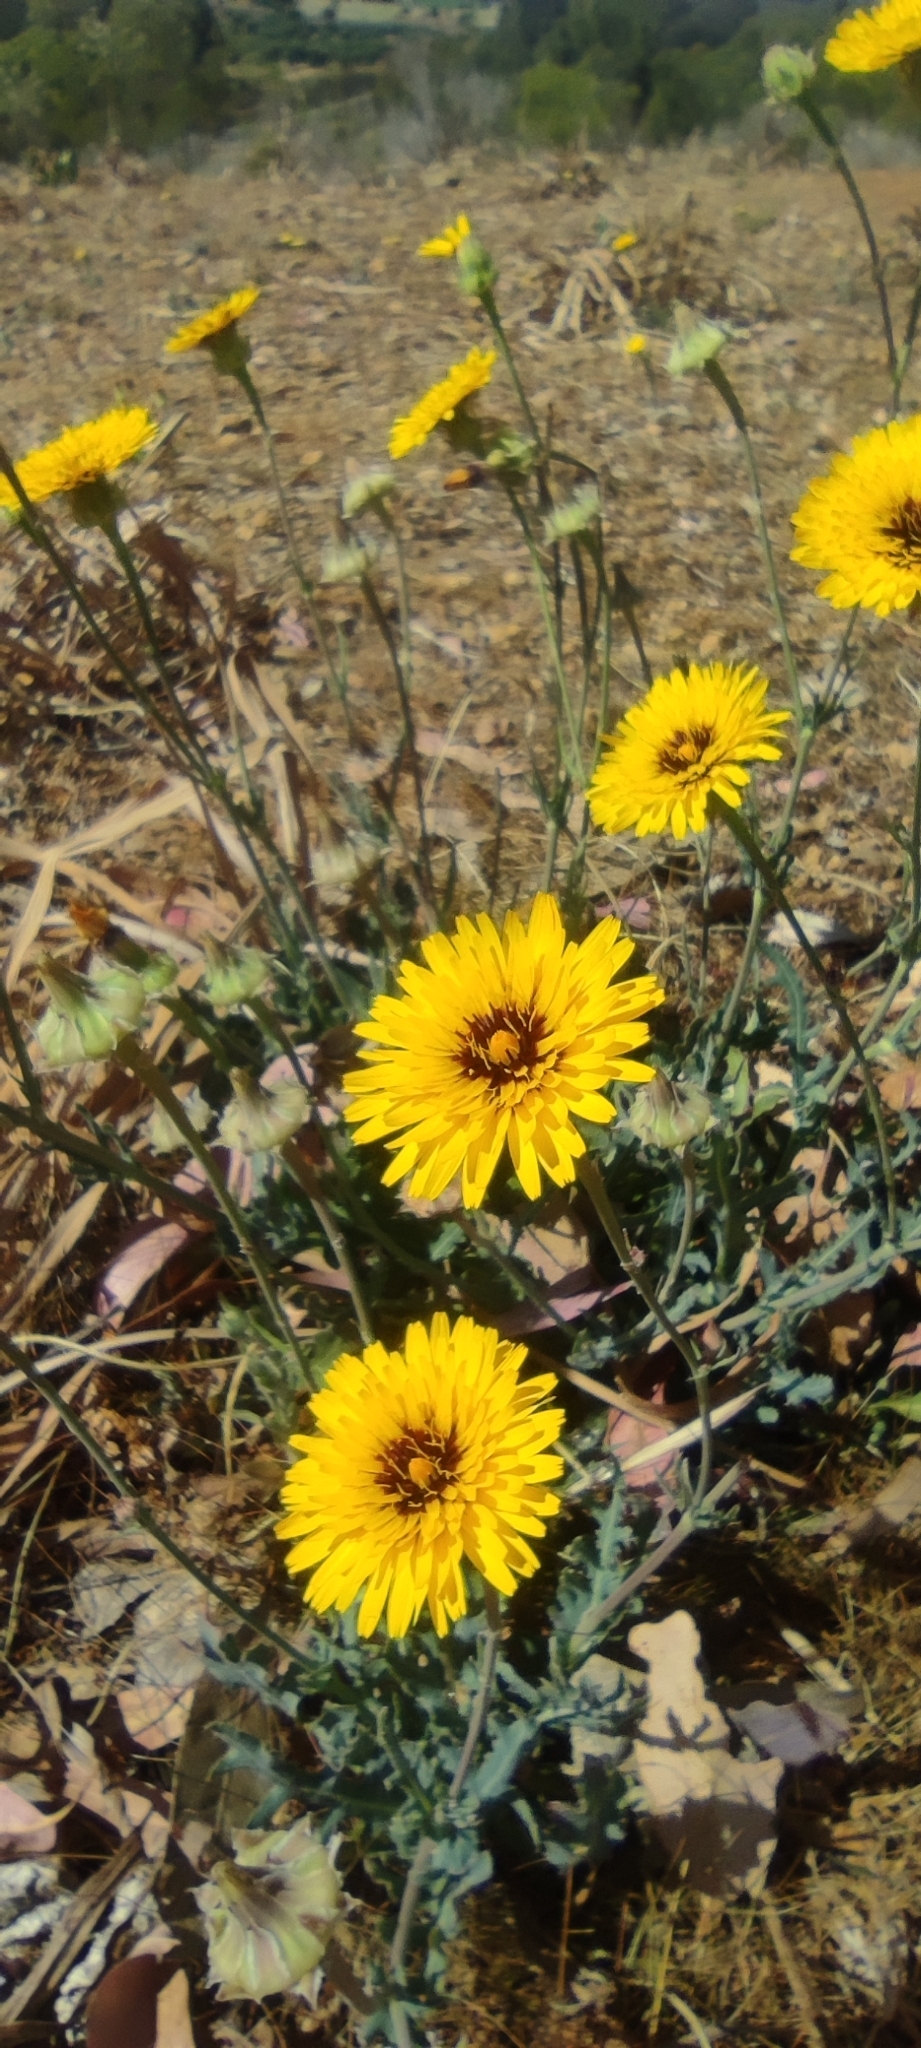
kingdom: Plantae
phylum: Tracheophyta
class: Magnoliopsida
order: Asterales
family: Asteraceae
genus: Reichardia
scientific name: Reichardia tingitana
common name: Reichardia
